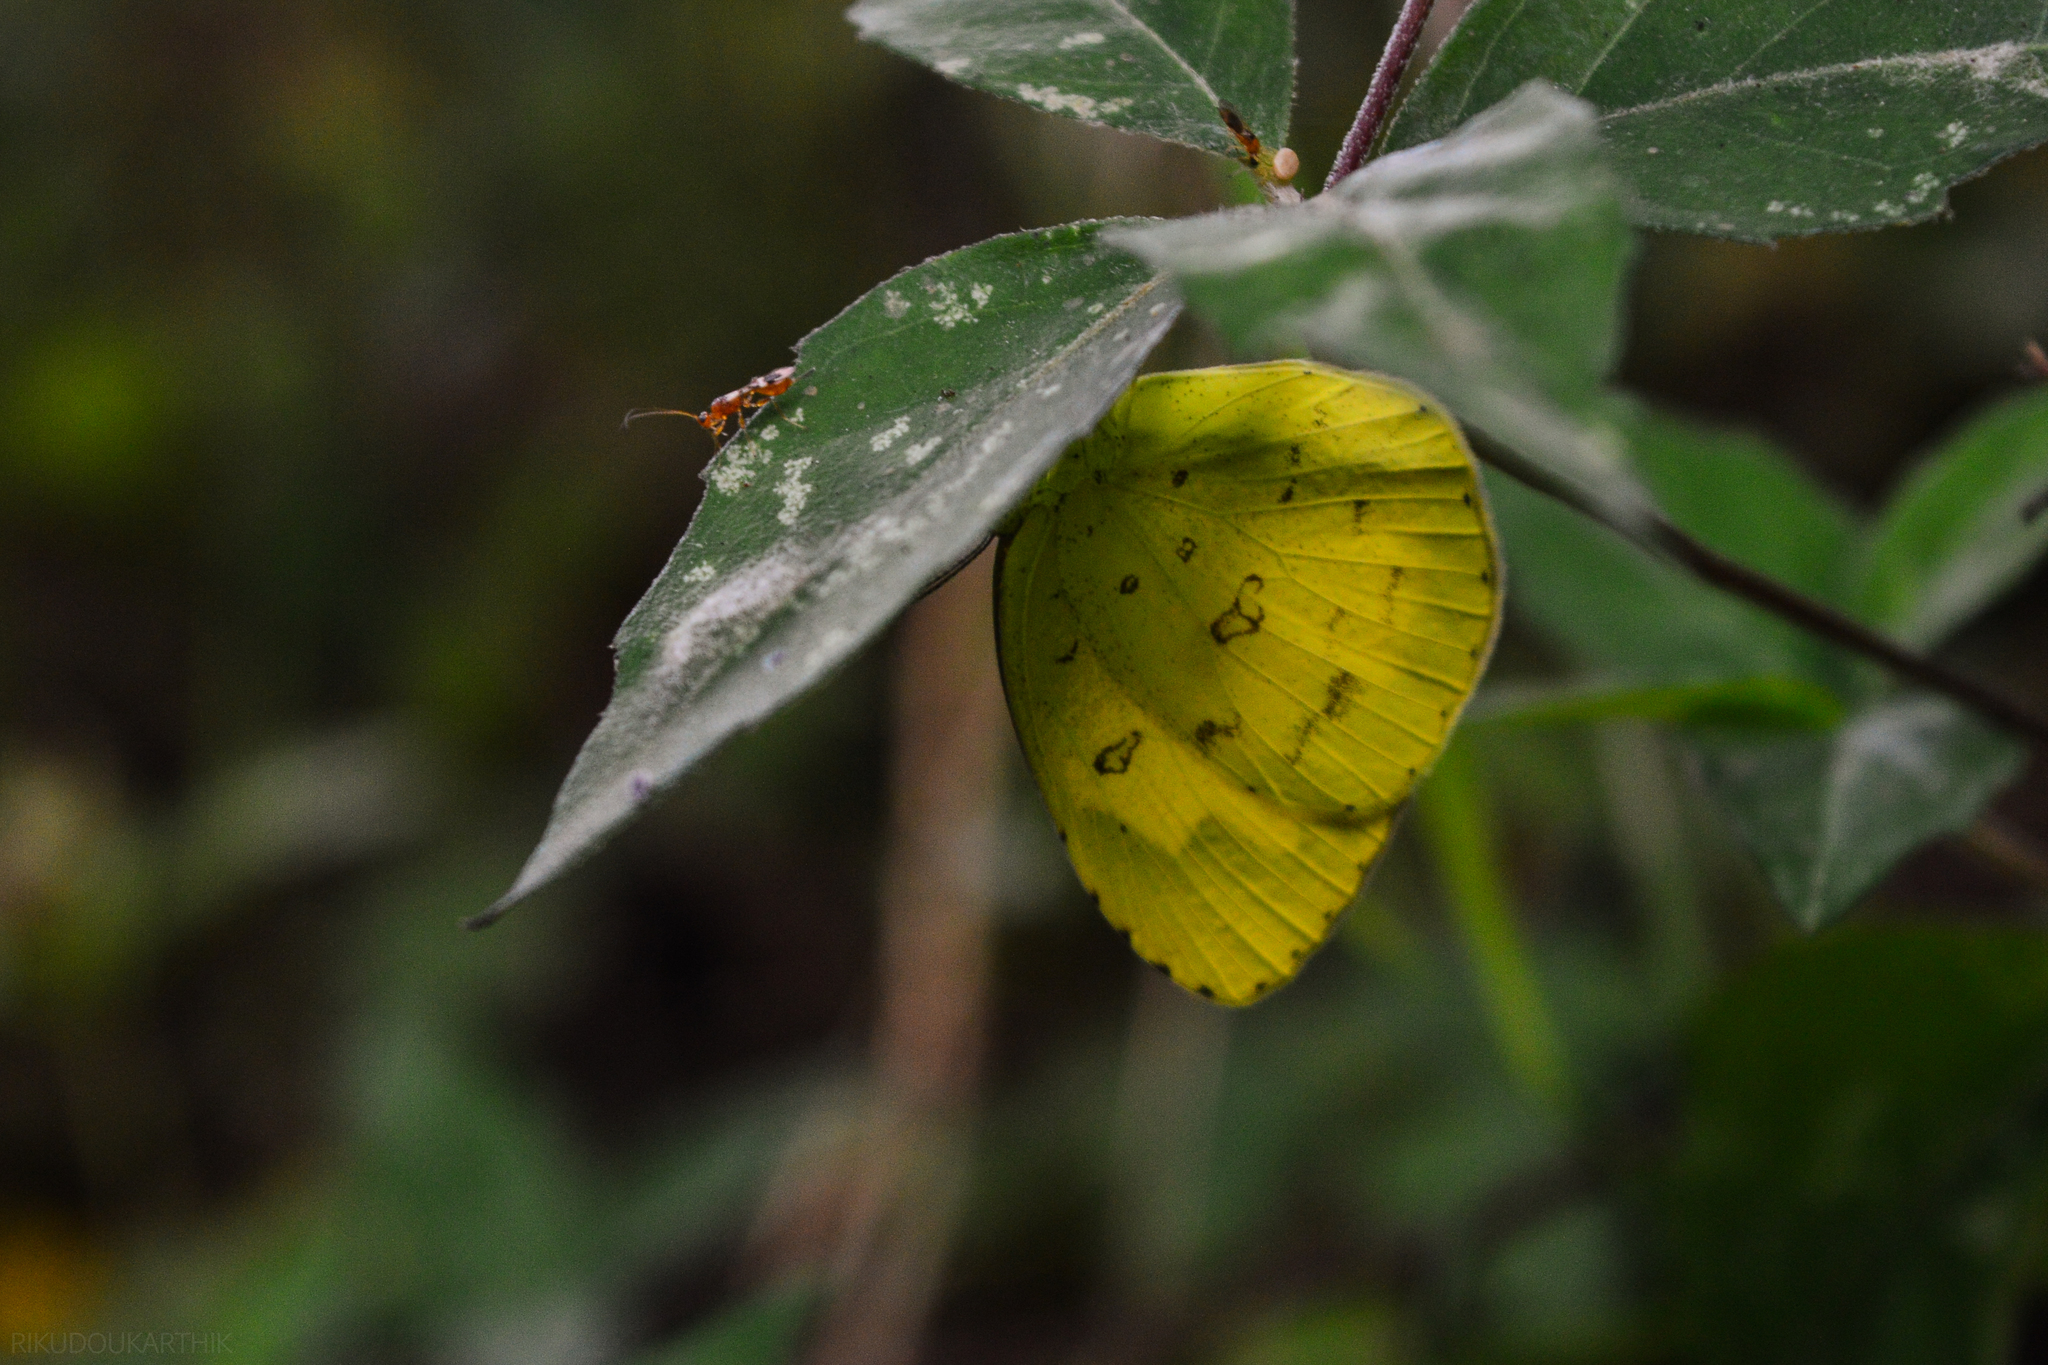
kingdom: Animalia
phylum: Arthropoda
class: Insecta
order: Lepidoptera
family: Pieridae
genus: Eurema
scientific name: Eurema hecabe
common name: Pale grass yellow
